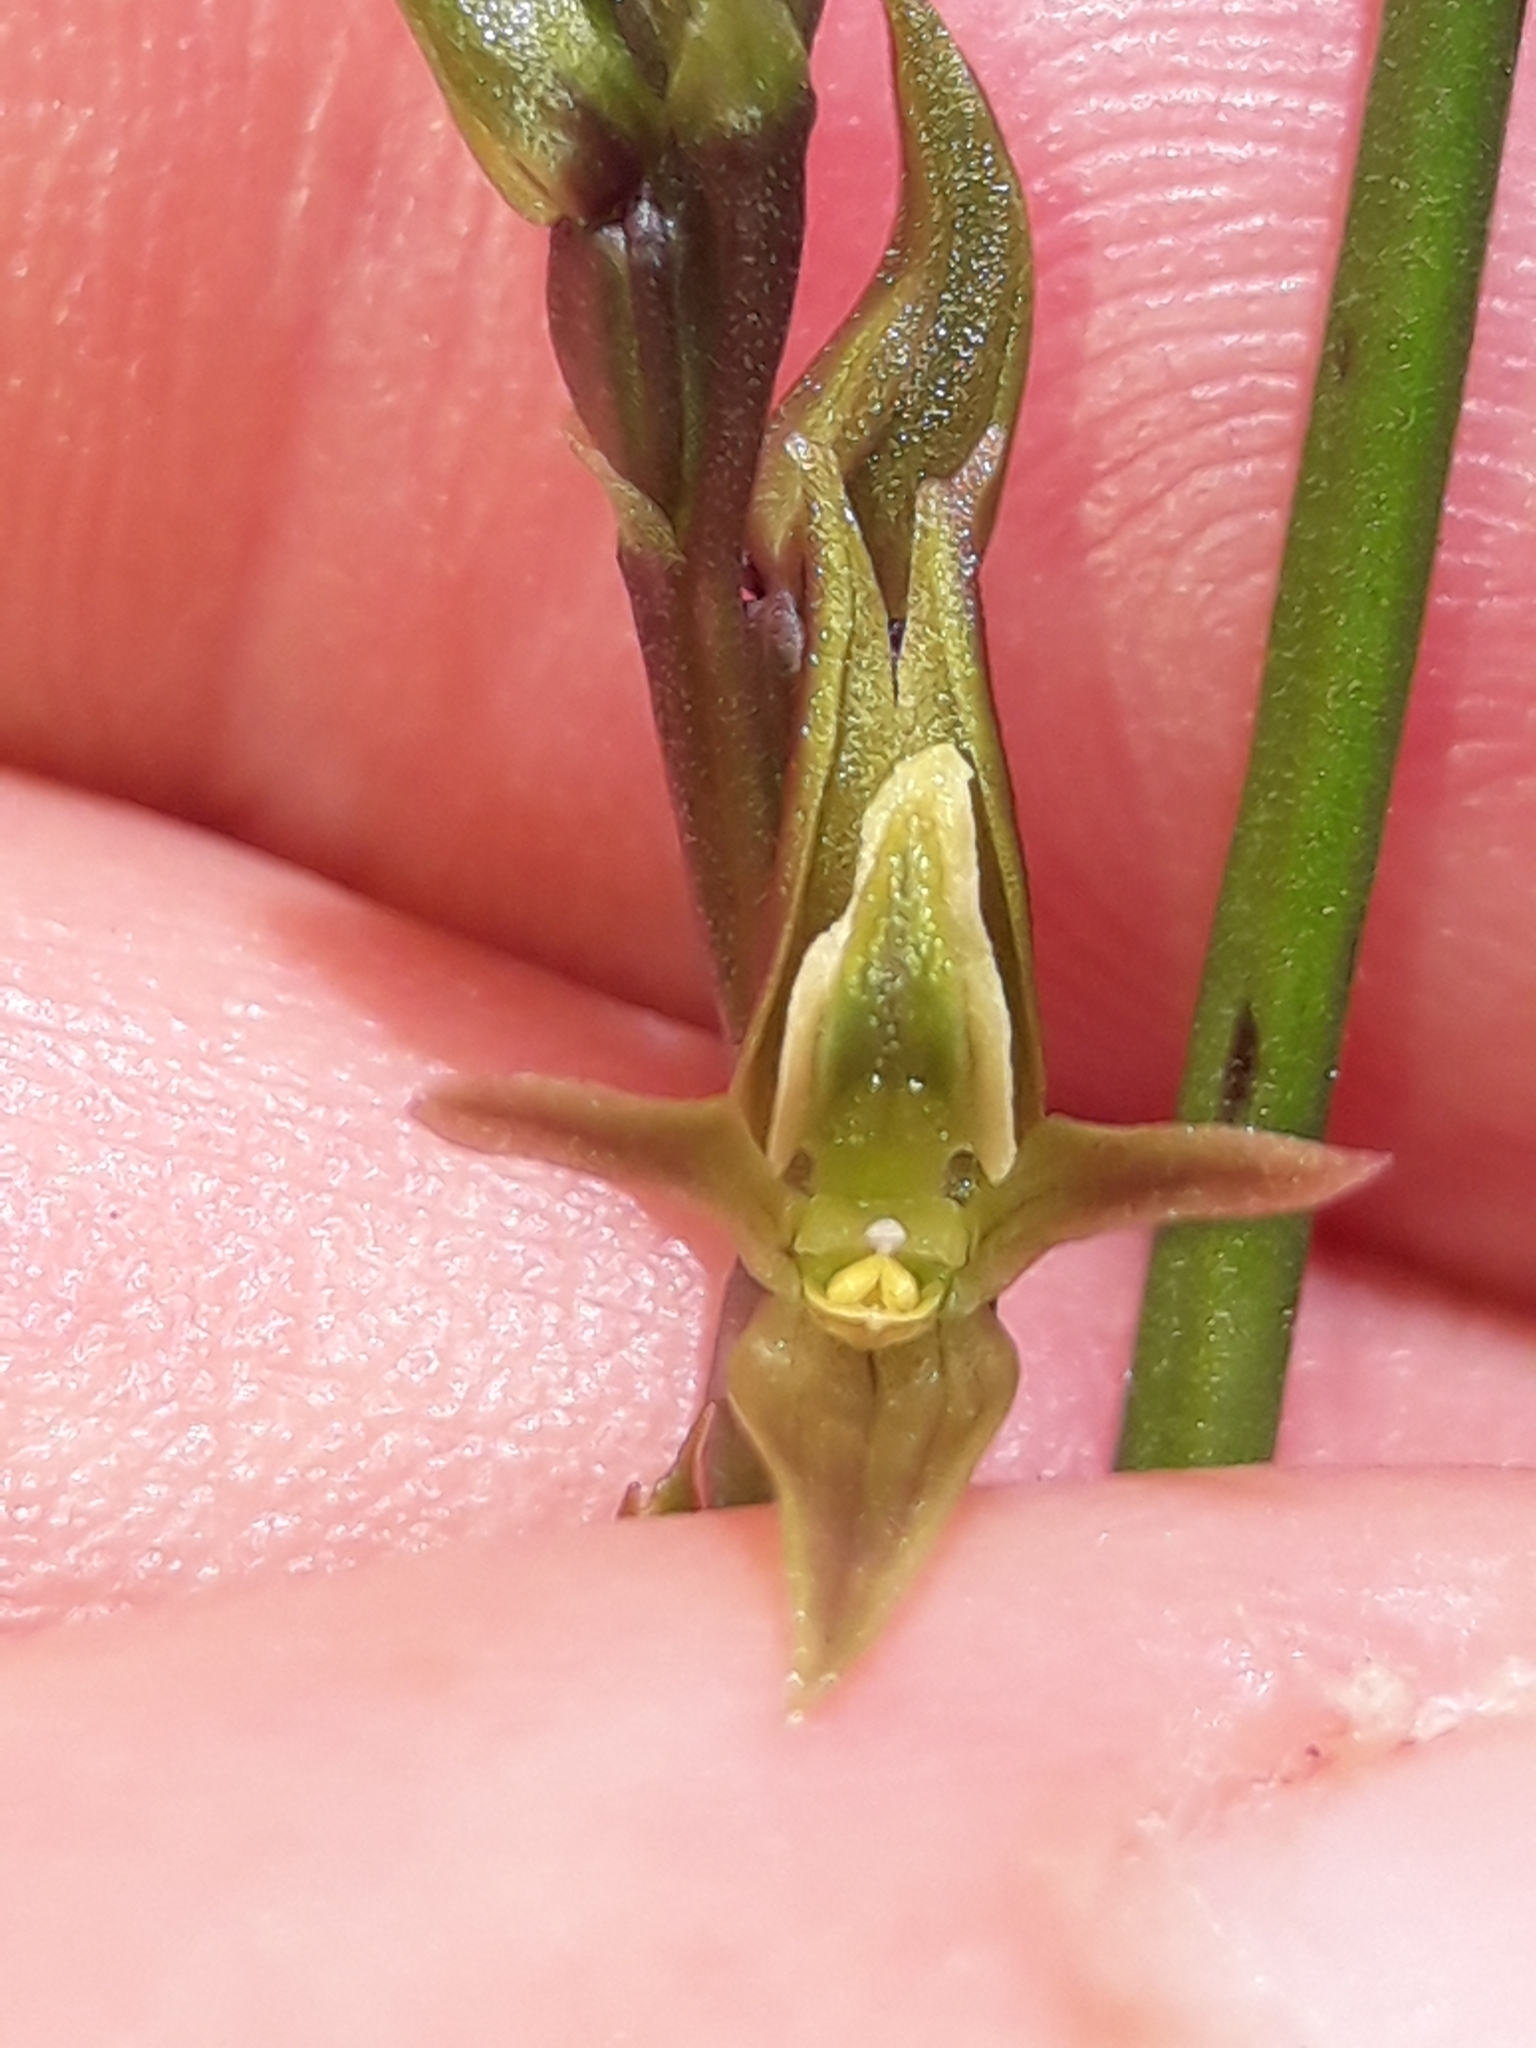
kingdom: Plantae
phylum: Tracheophyta
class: Liliopsida
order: Asparagales
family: Orchidaceae
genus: Prasophyllum
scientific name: Prasophyllum colensoi
